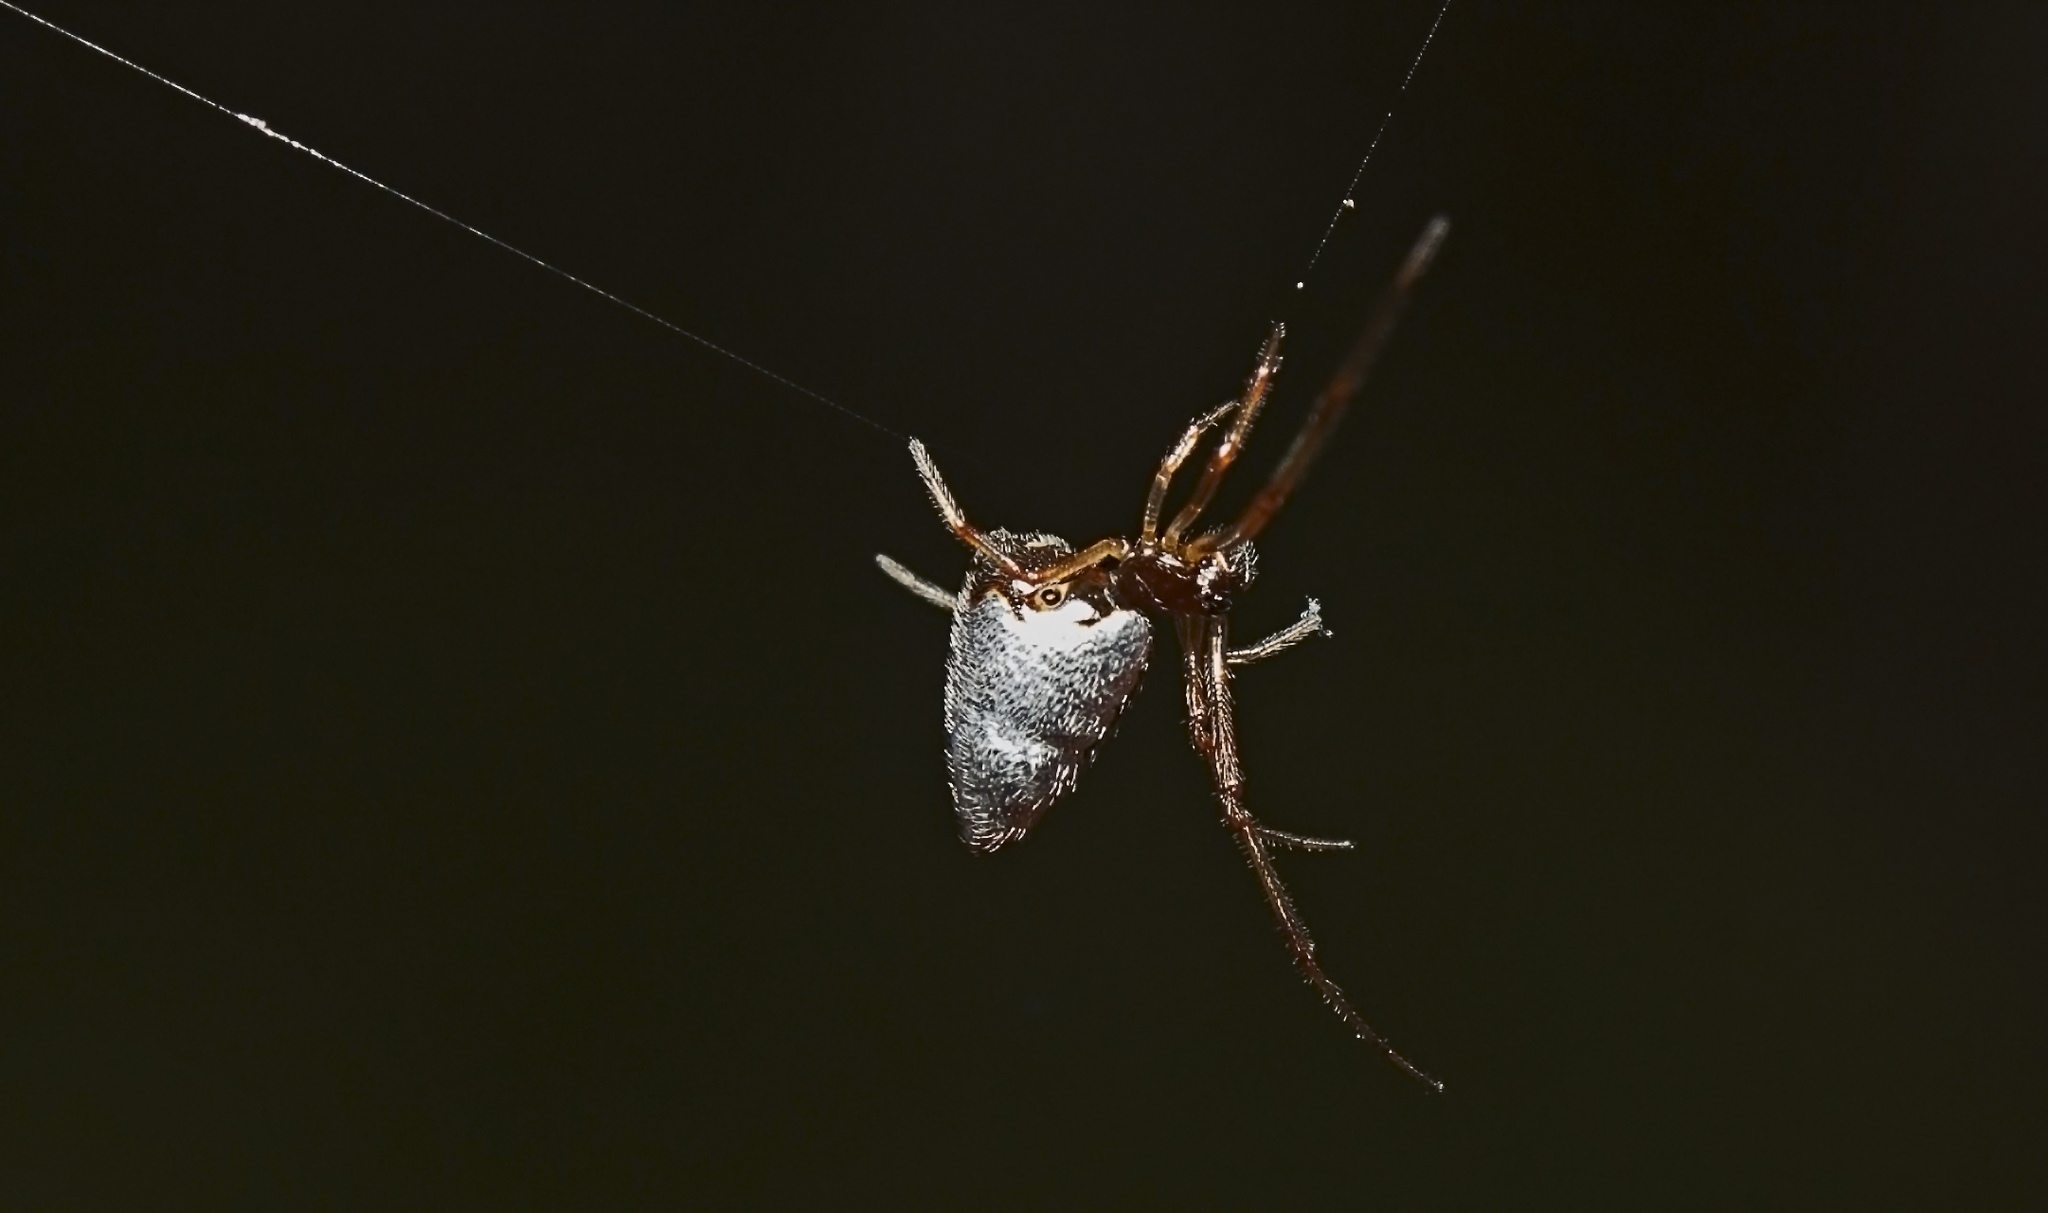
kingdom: Animalia
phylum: Arthropoda
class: Arachnida
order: Araneae
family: Theridiidae
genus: Argyrodes
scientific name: Argyrodes antipodianus
